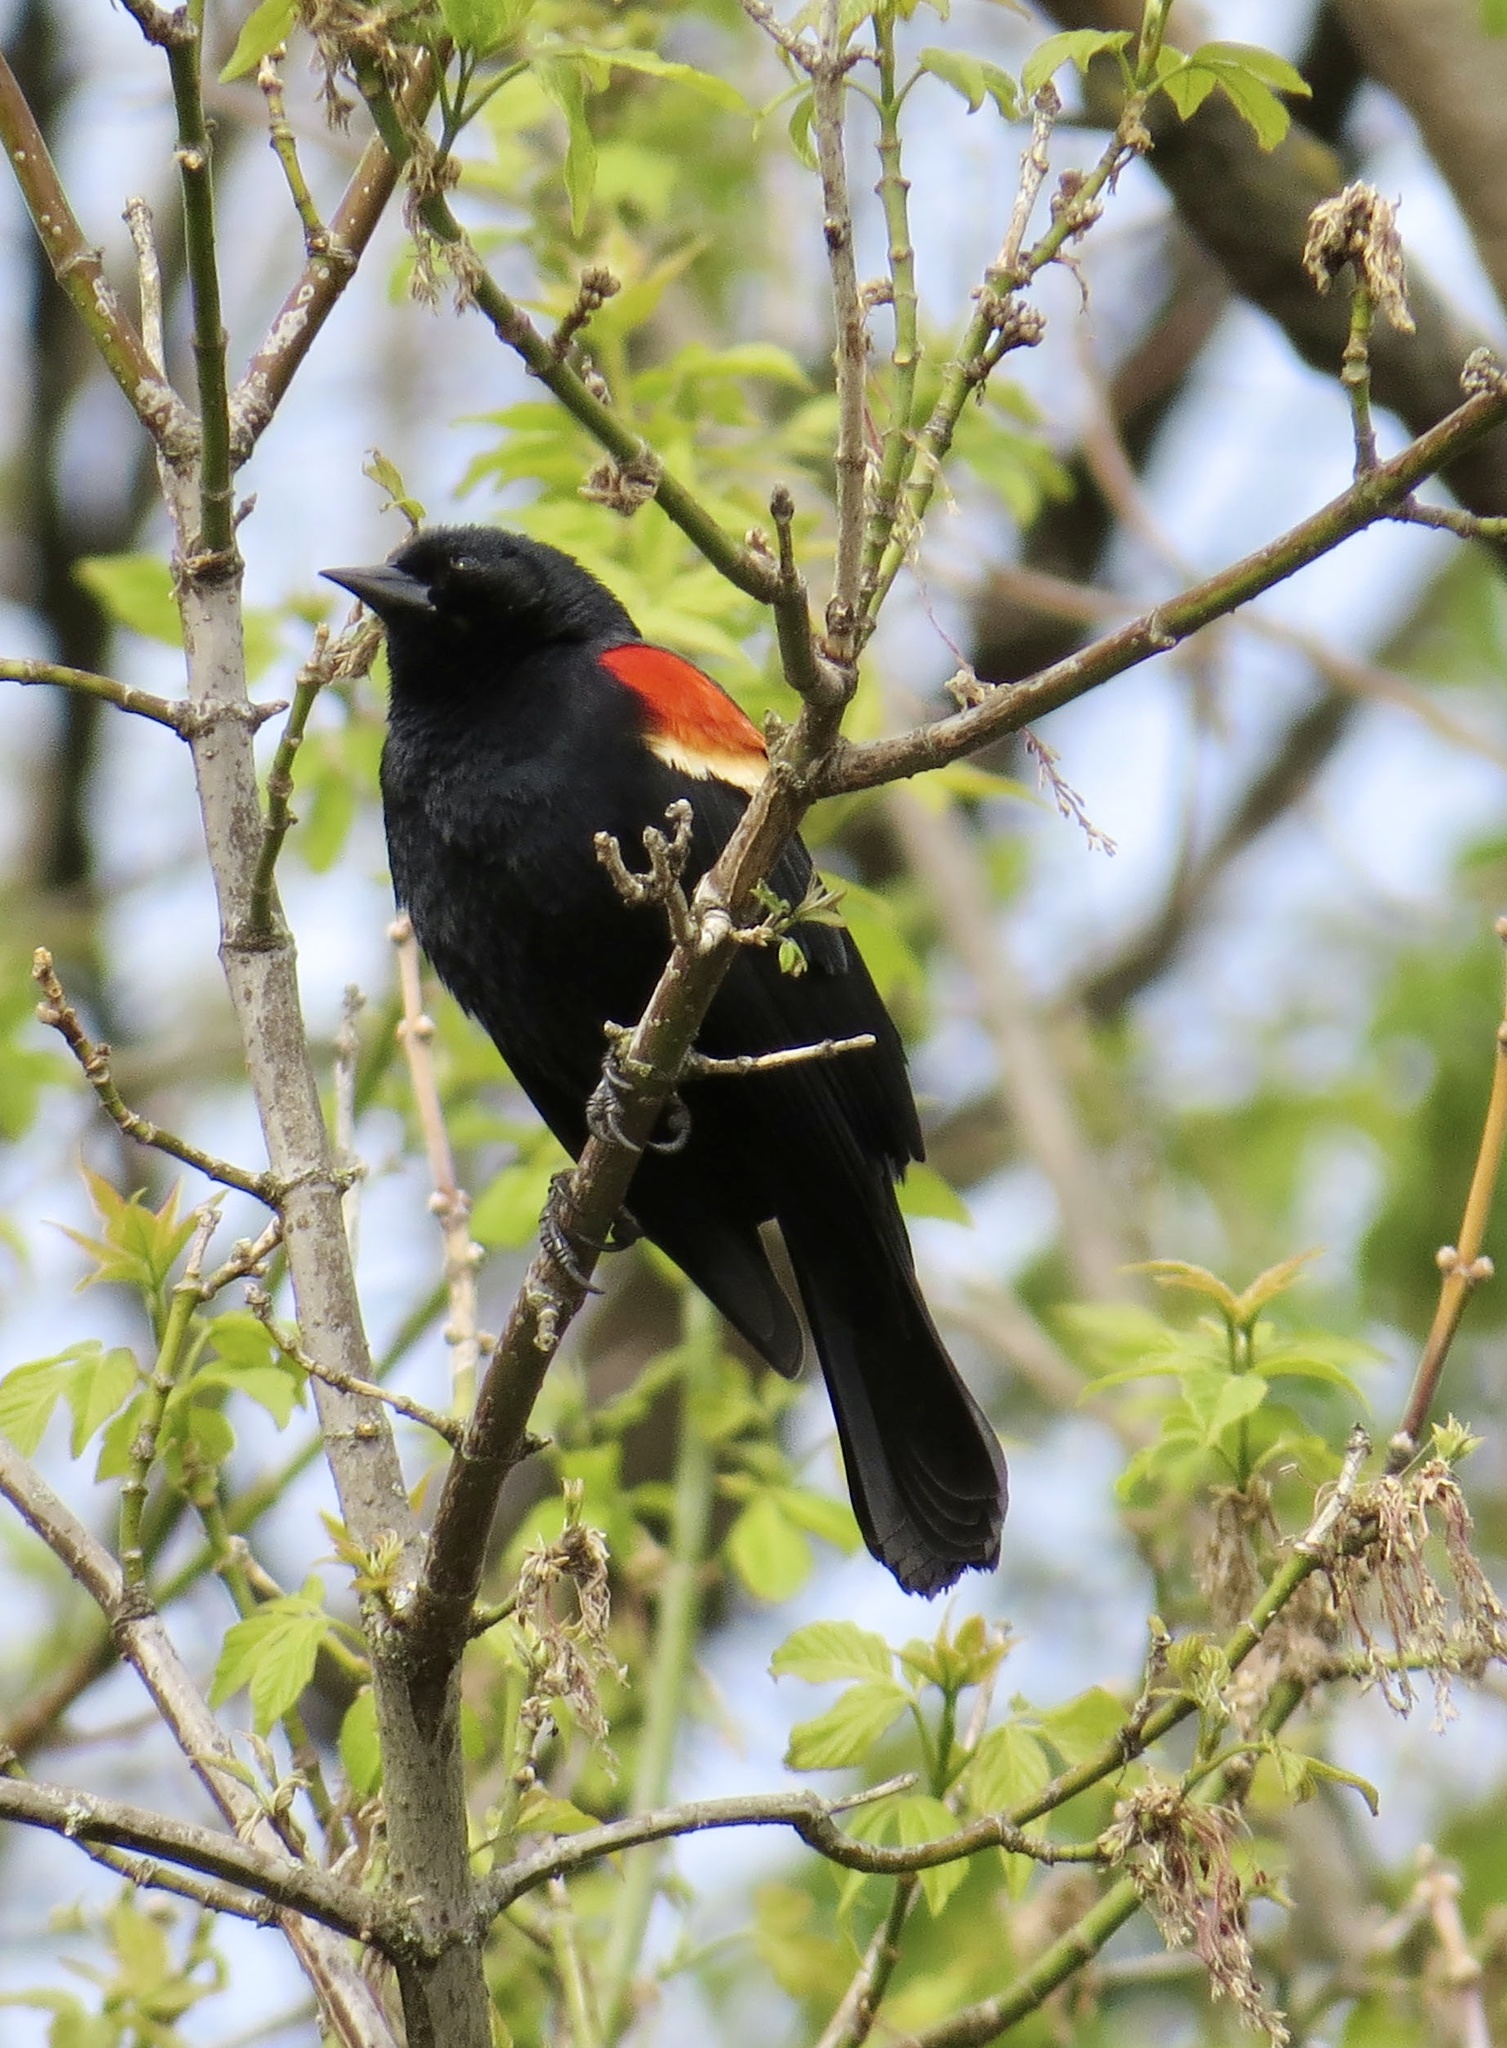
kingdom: Animalia
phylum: Chordata
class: Aves
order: Passeriformes
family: Icteridae
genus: Agelaius
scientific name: Agelaius phoeniceus
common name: Red-winged blackbird
